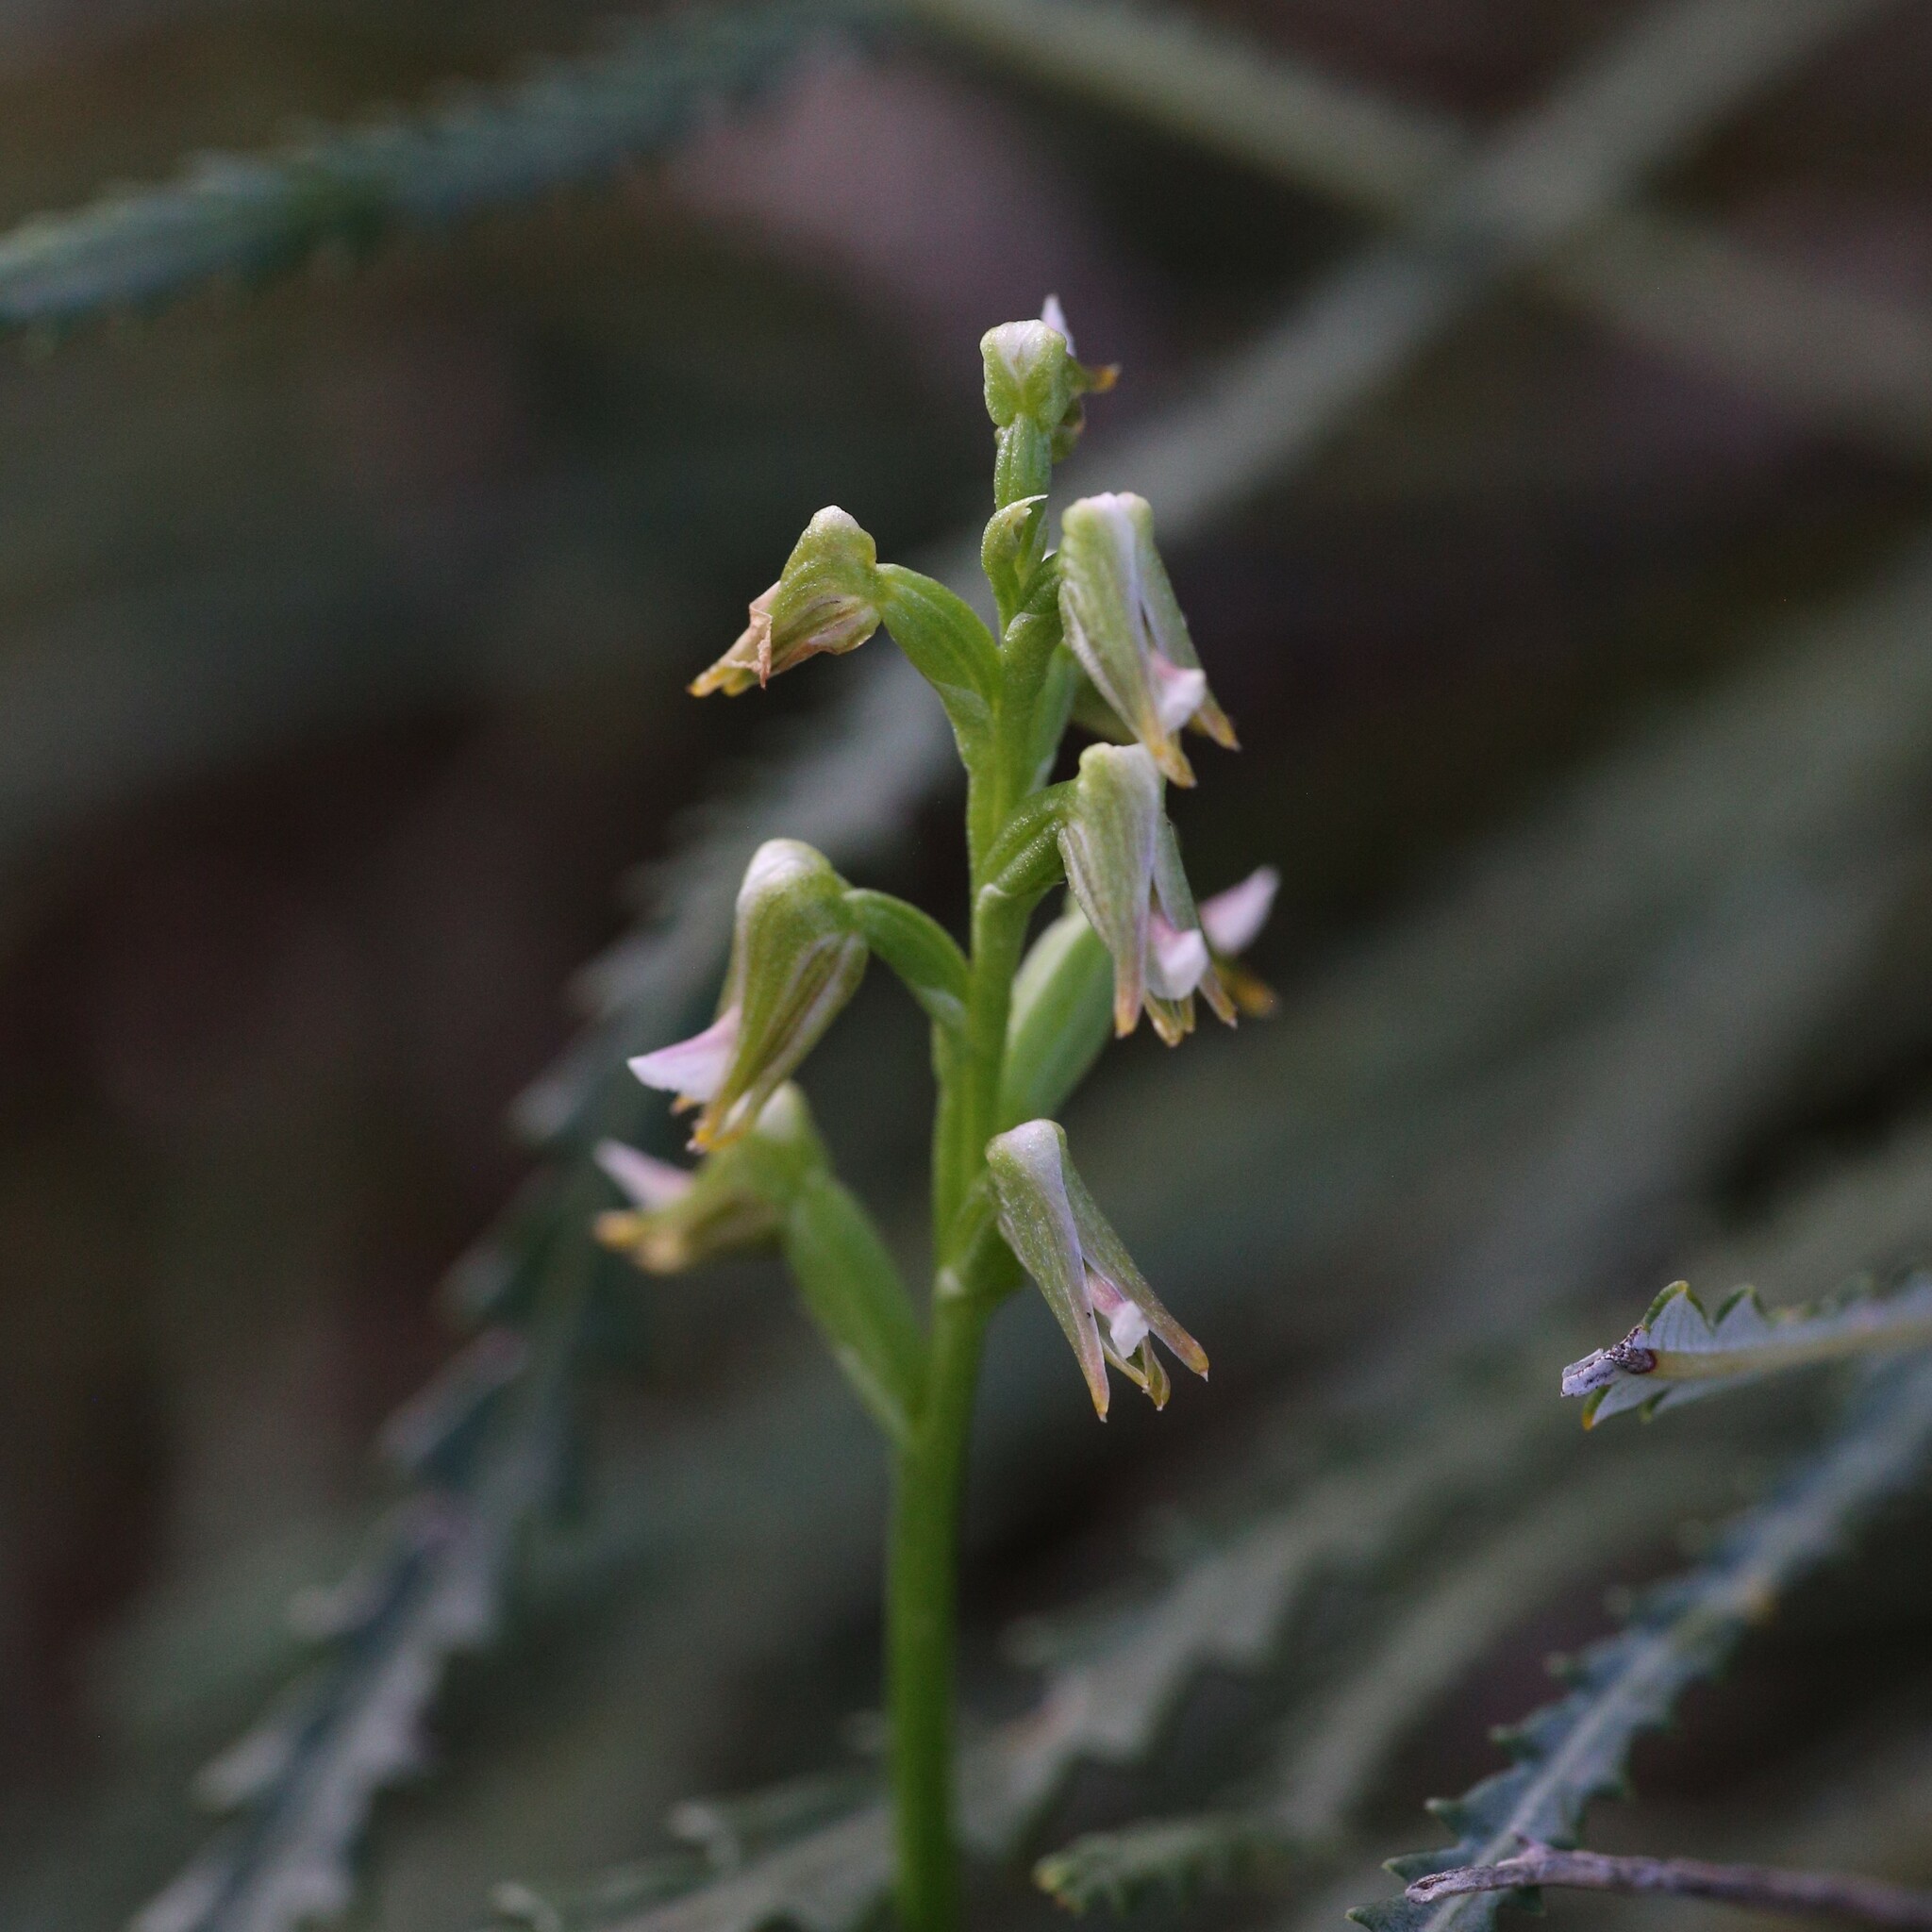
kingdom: Plantae
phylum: Tracheophyta
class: Liliopsida
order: Asparagales
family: Orchidaceae
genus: Prasophyllum
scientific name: Prasophyllum parvifolium
